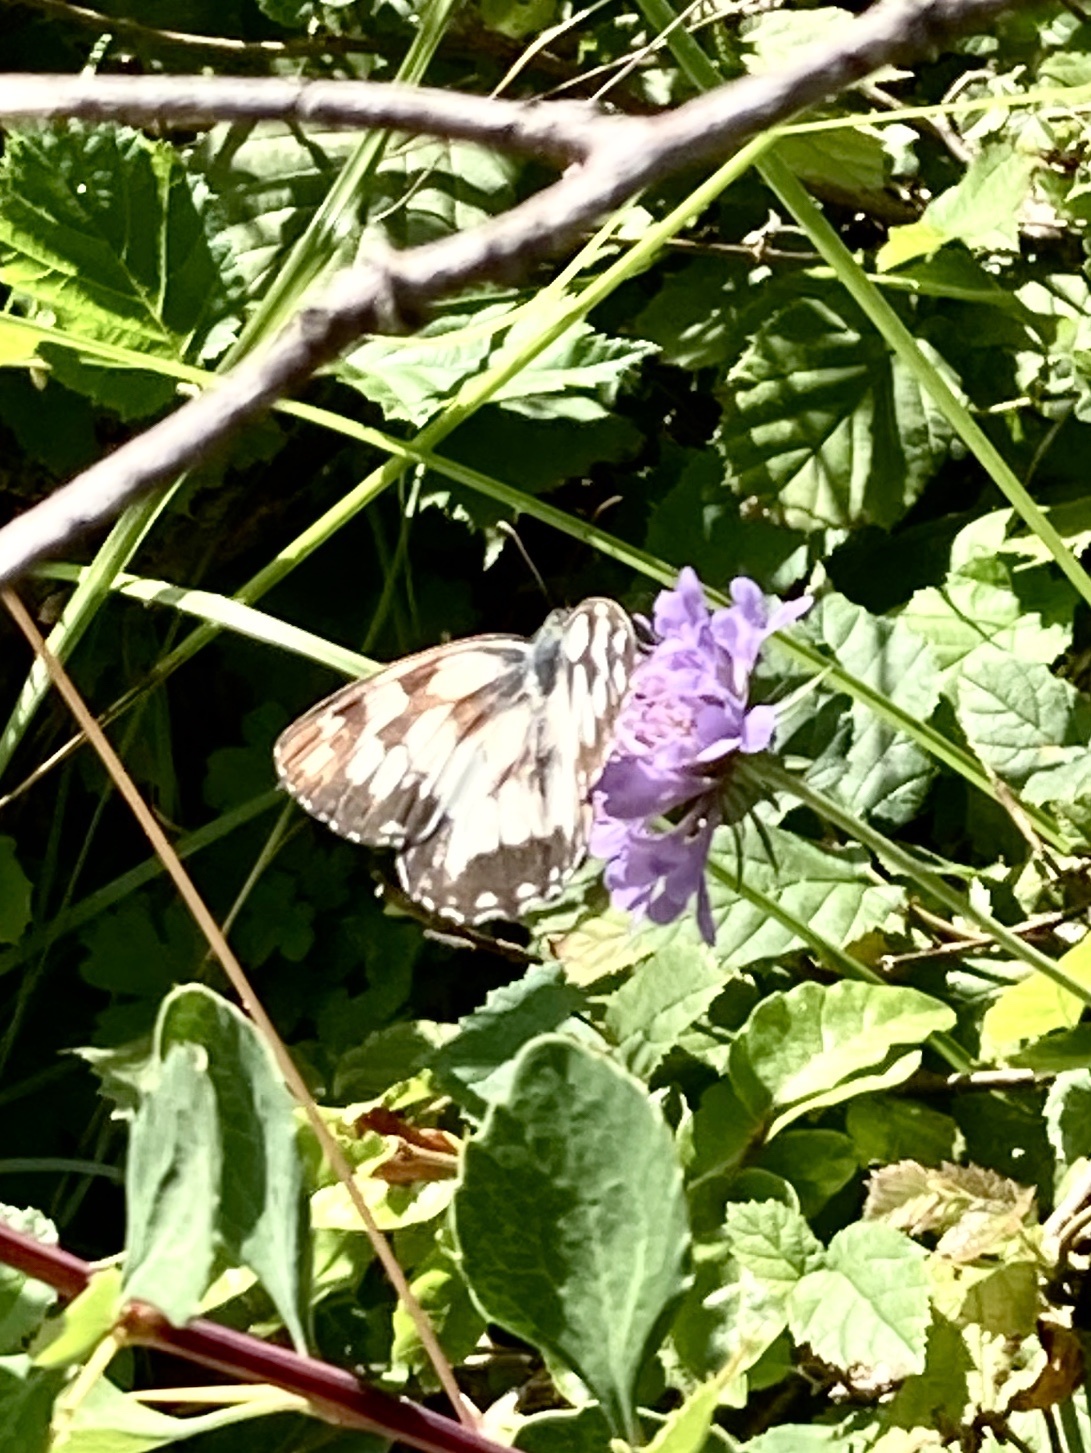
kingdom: Animalia
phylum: Arthropoda
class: Insecta
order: Lepidoptera
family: Nymphalidae
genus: Melanargia
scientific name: Melanargia galathea
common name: Marbled white
